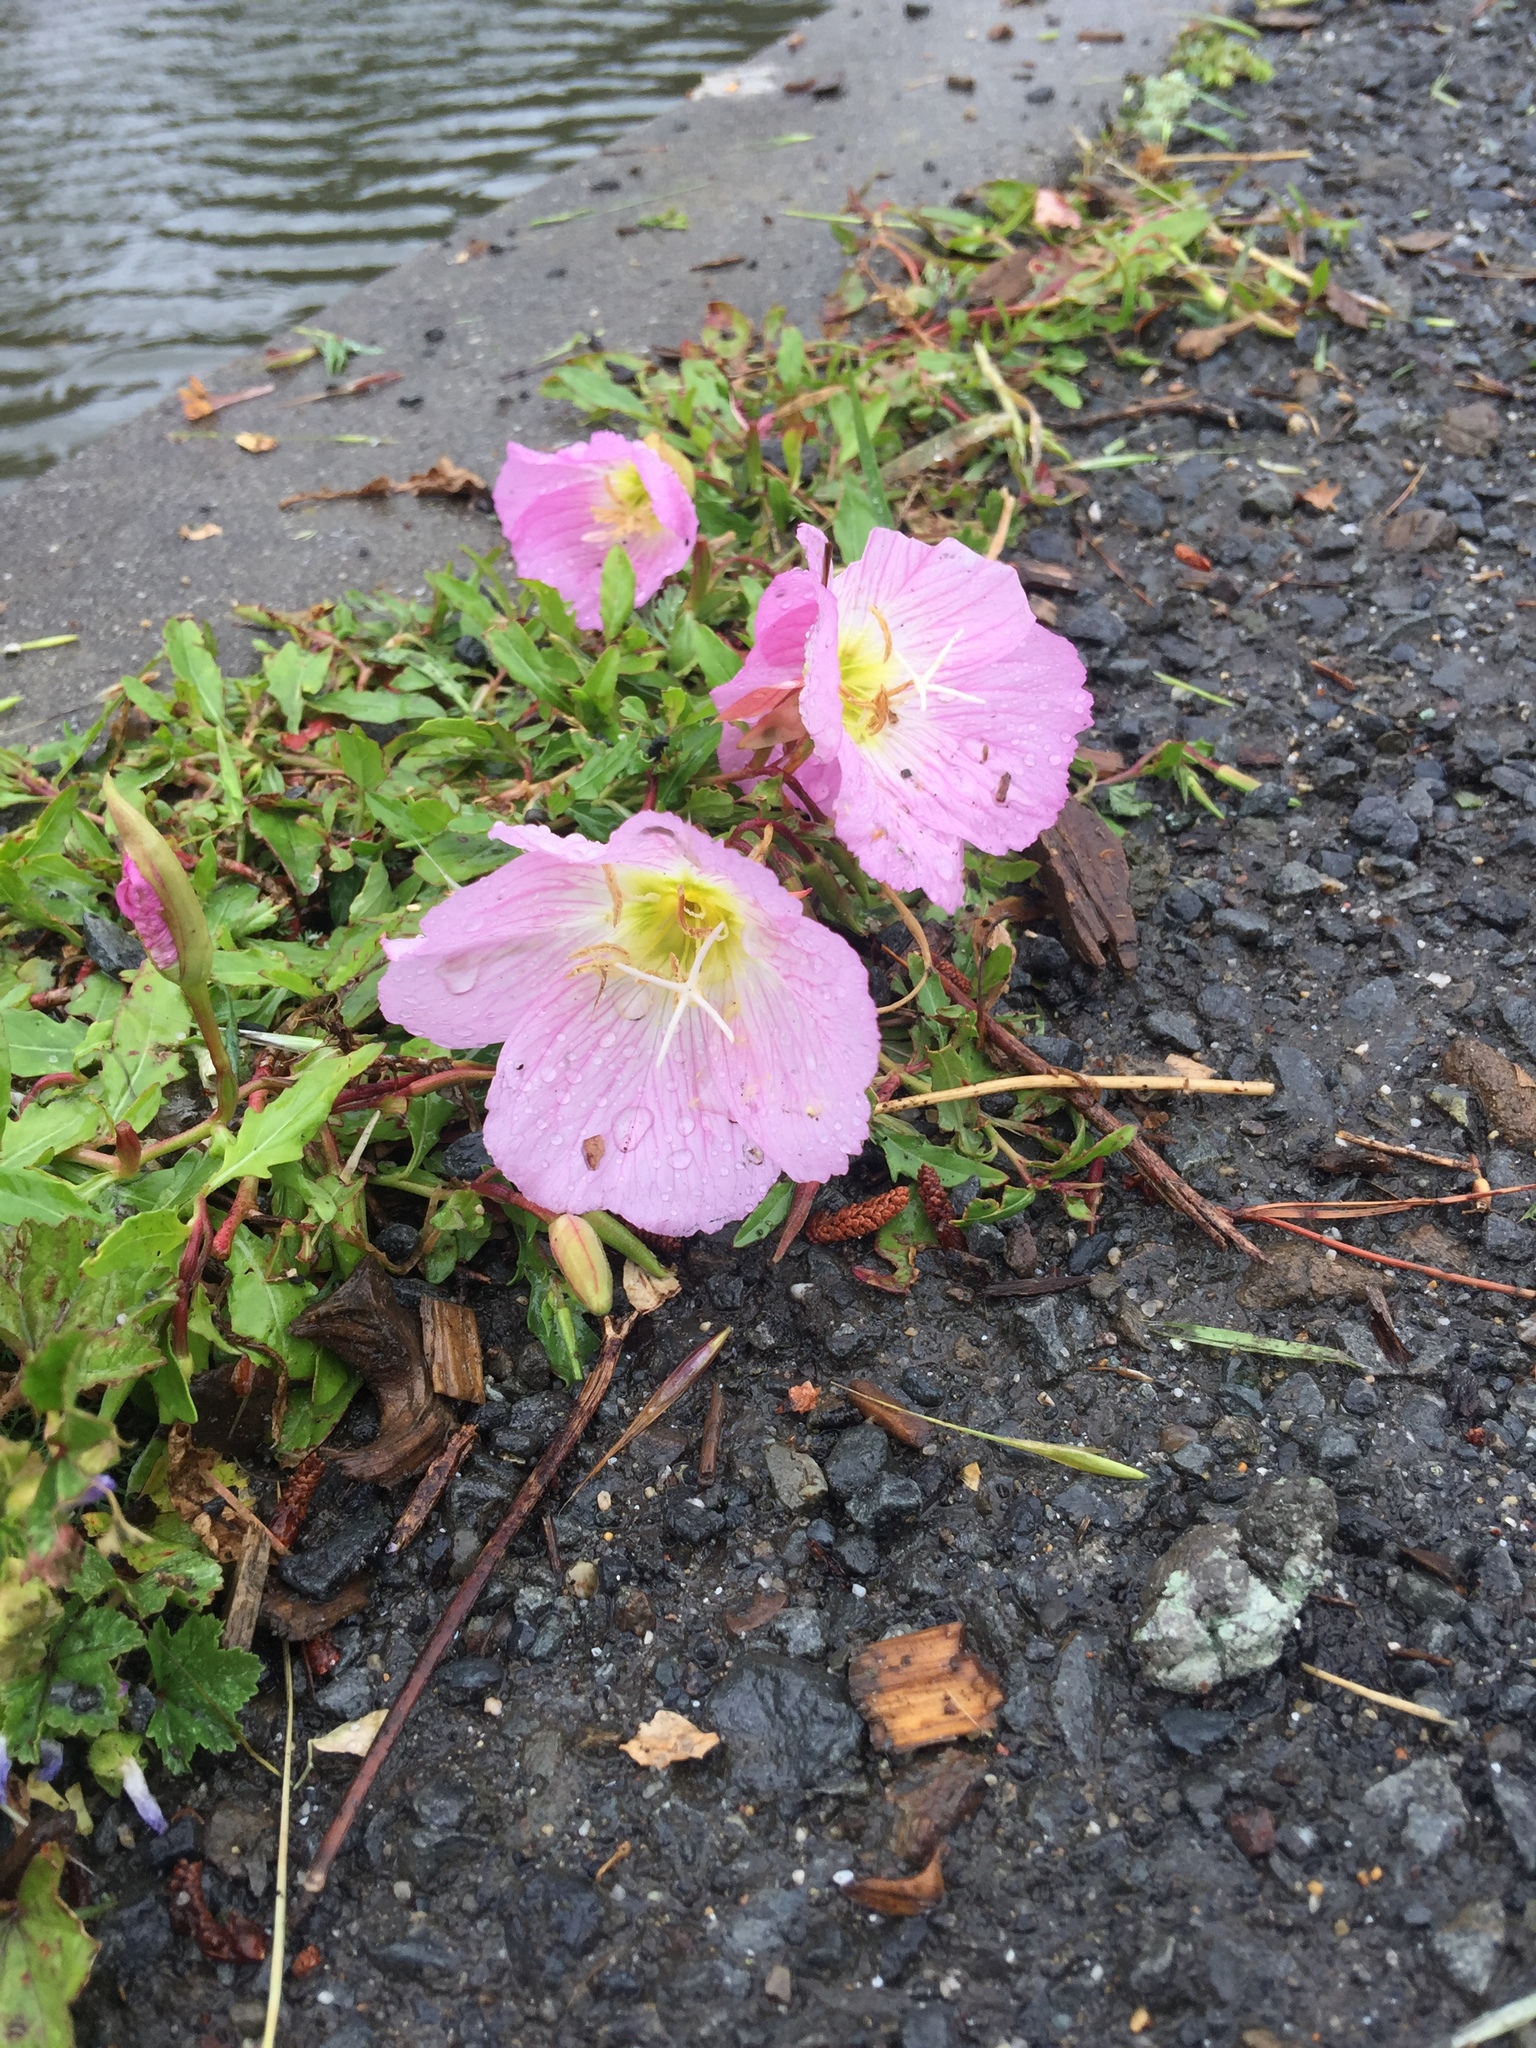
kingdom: Plantae
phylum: Tracheophyta
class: Magnoliopsida
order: Myrtales
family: Onagraceae
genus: Oenothera
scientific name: Oenothera speciosa
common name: White evening-primrose
